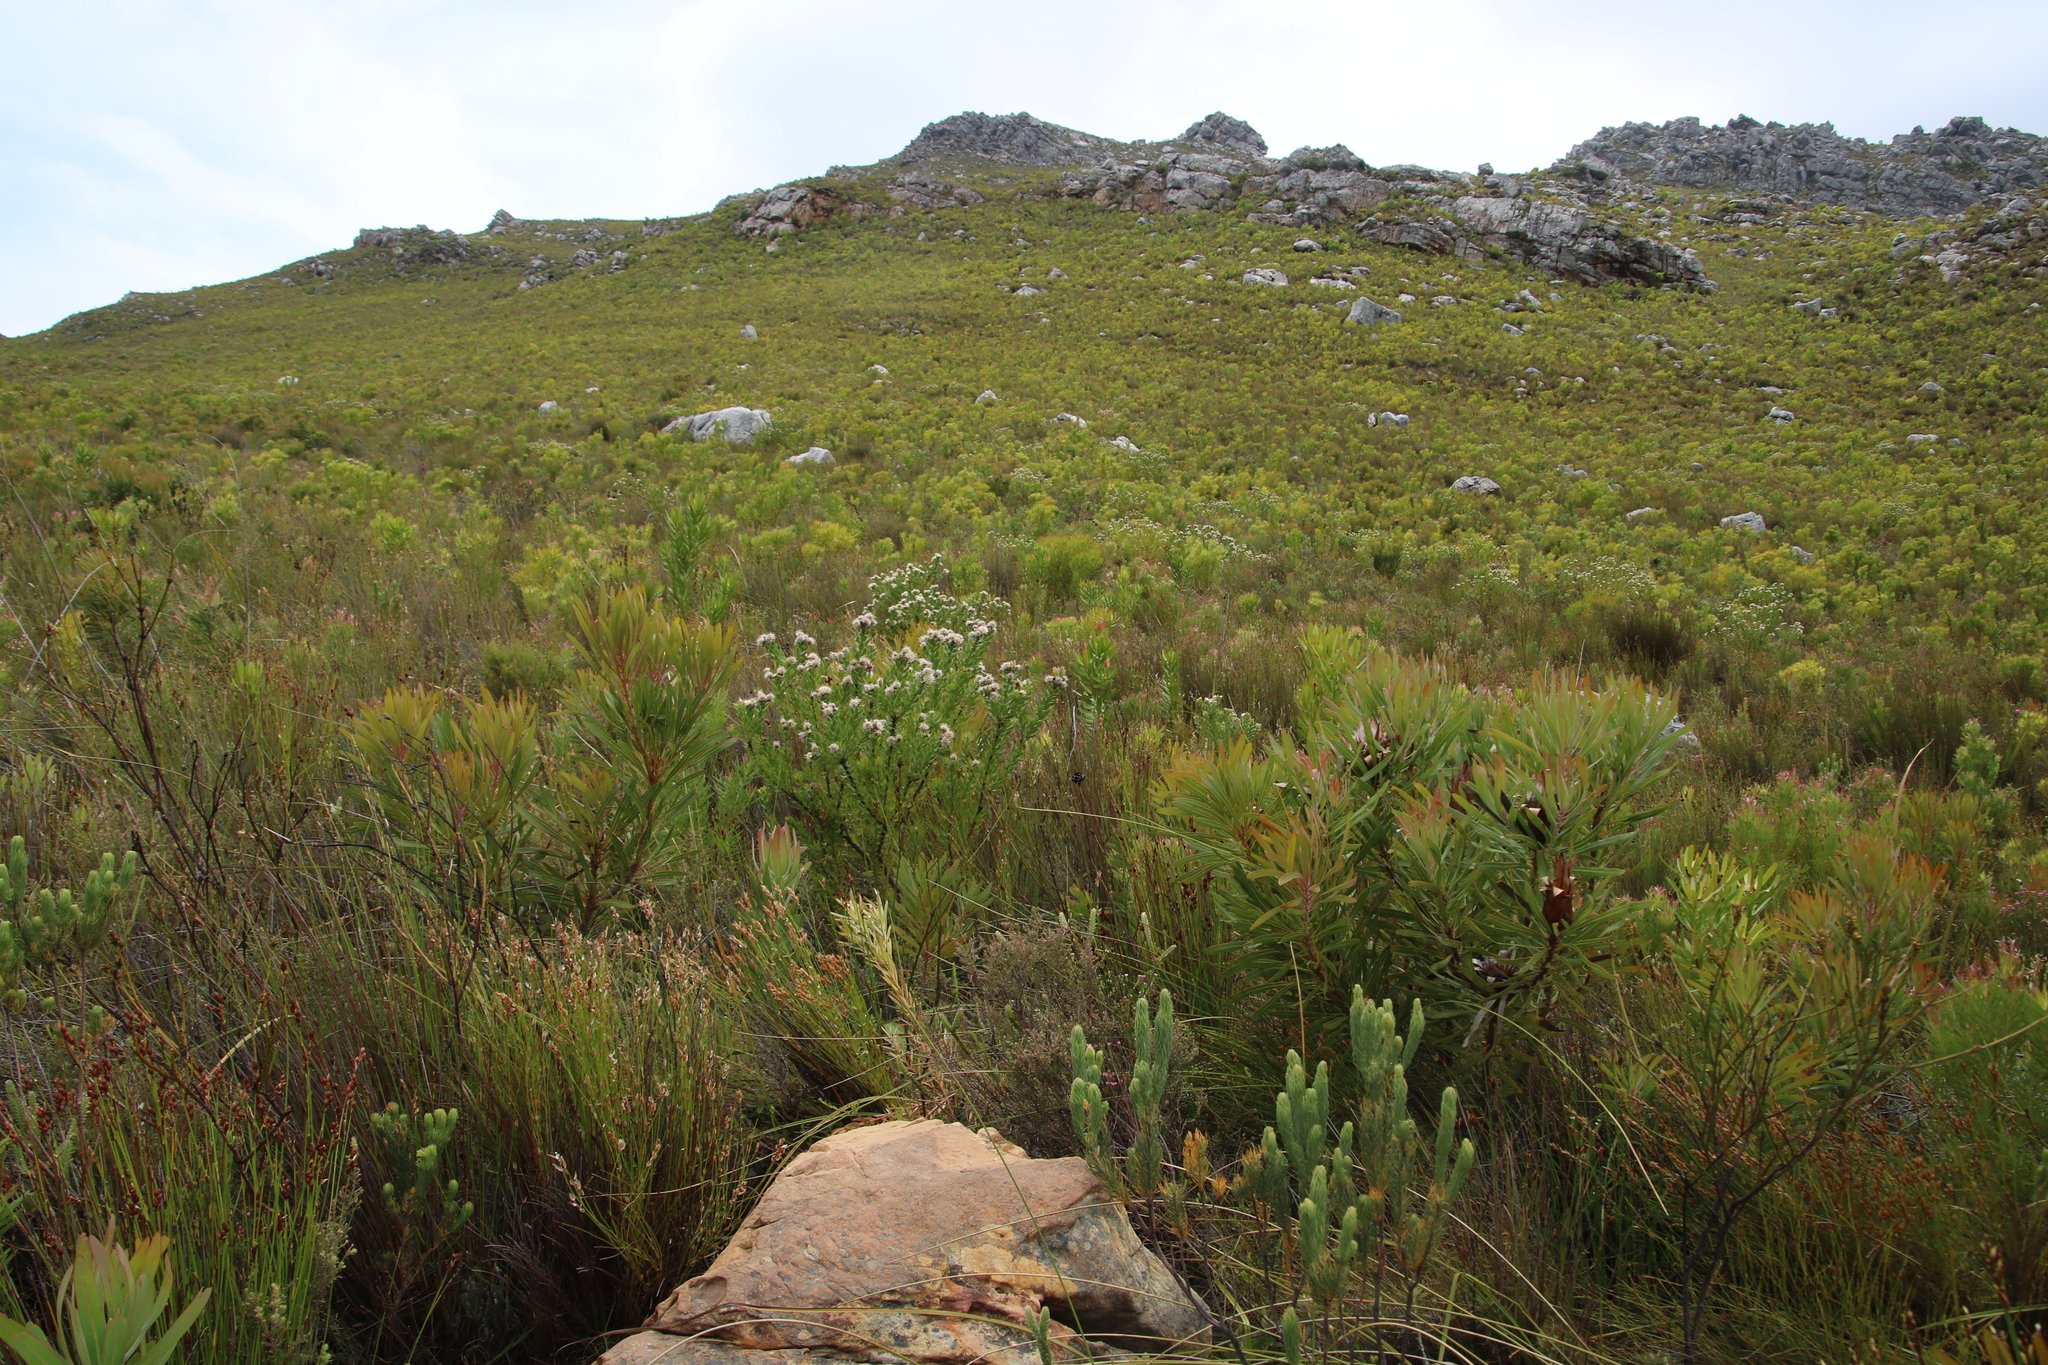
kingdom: Plantae
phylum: Tracheophyta
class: Magnoliopsida
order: Proteales
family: Proteaceae
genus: Leucospermum
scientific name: Leucospermum bolusii
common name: Gordon's bay pincushion
